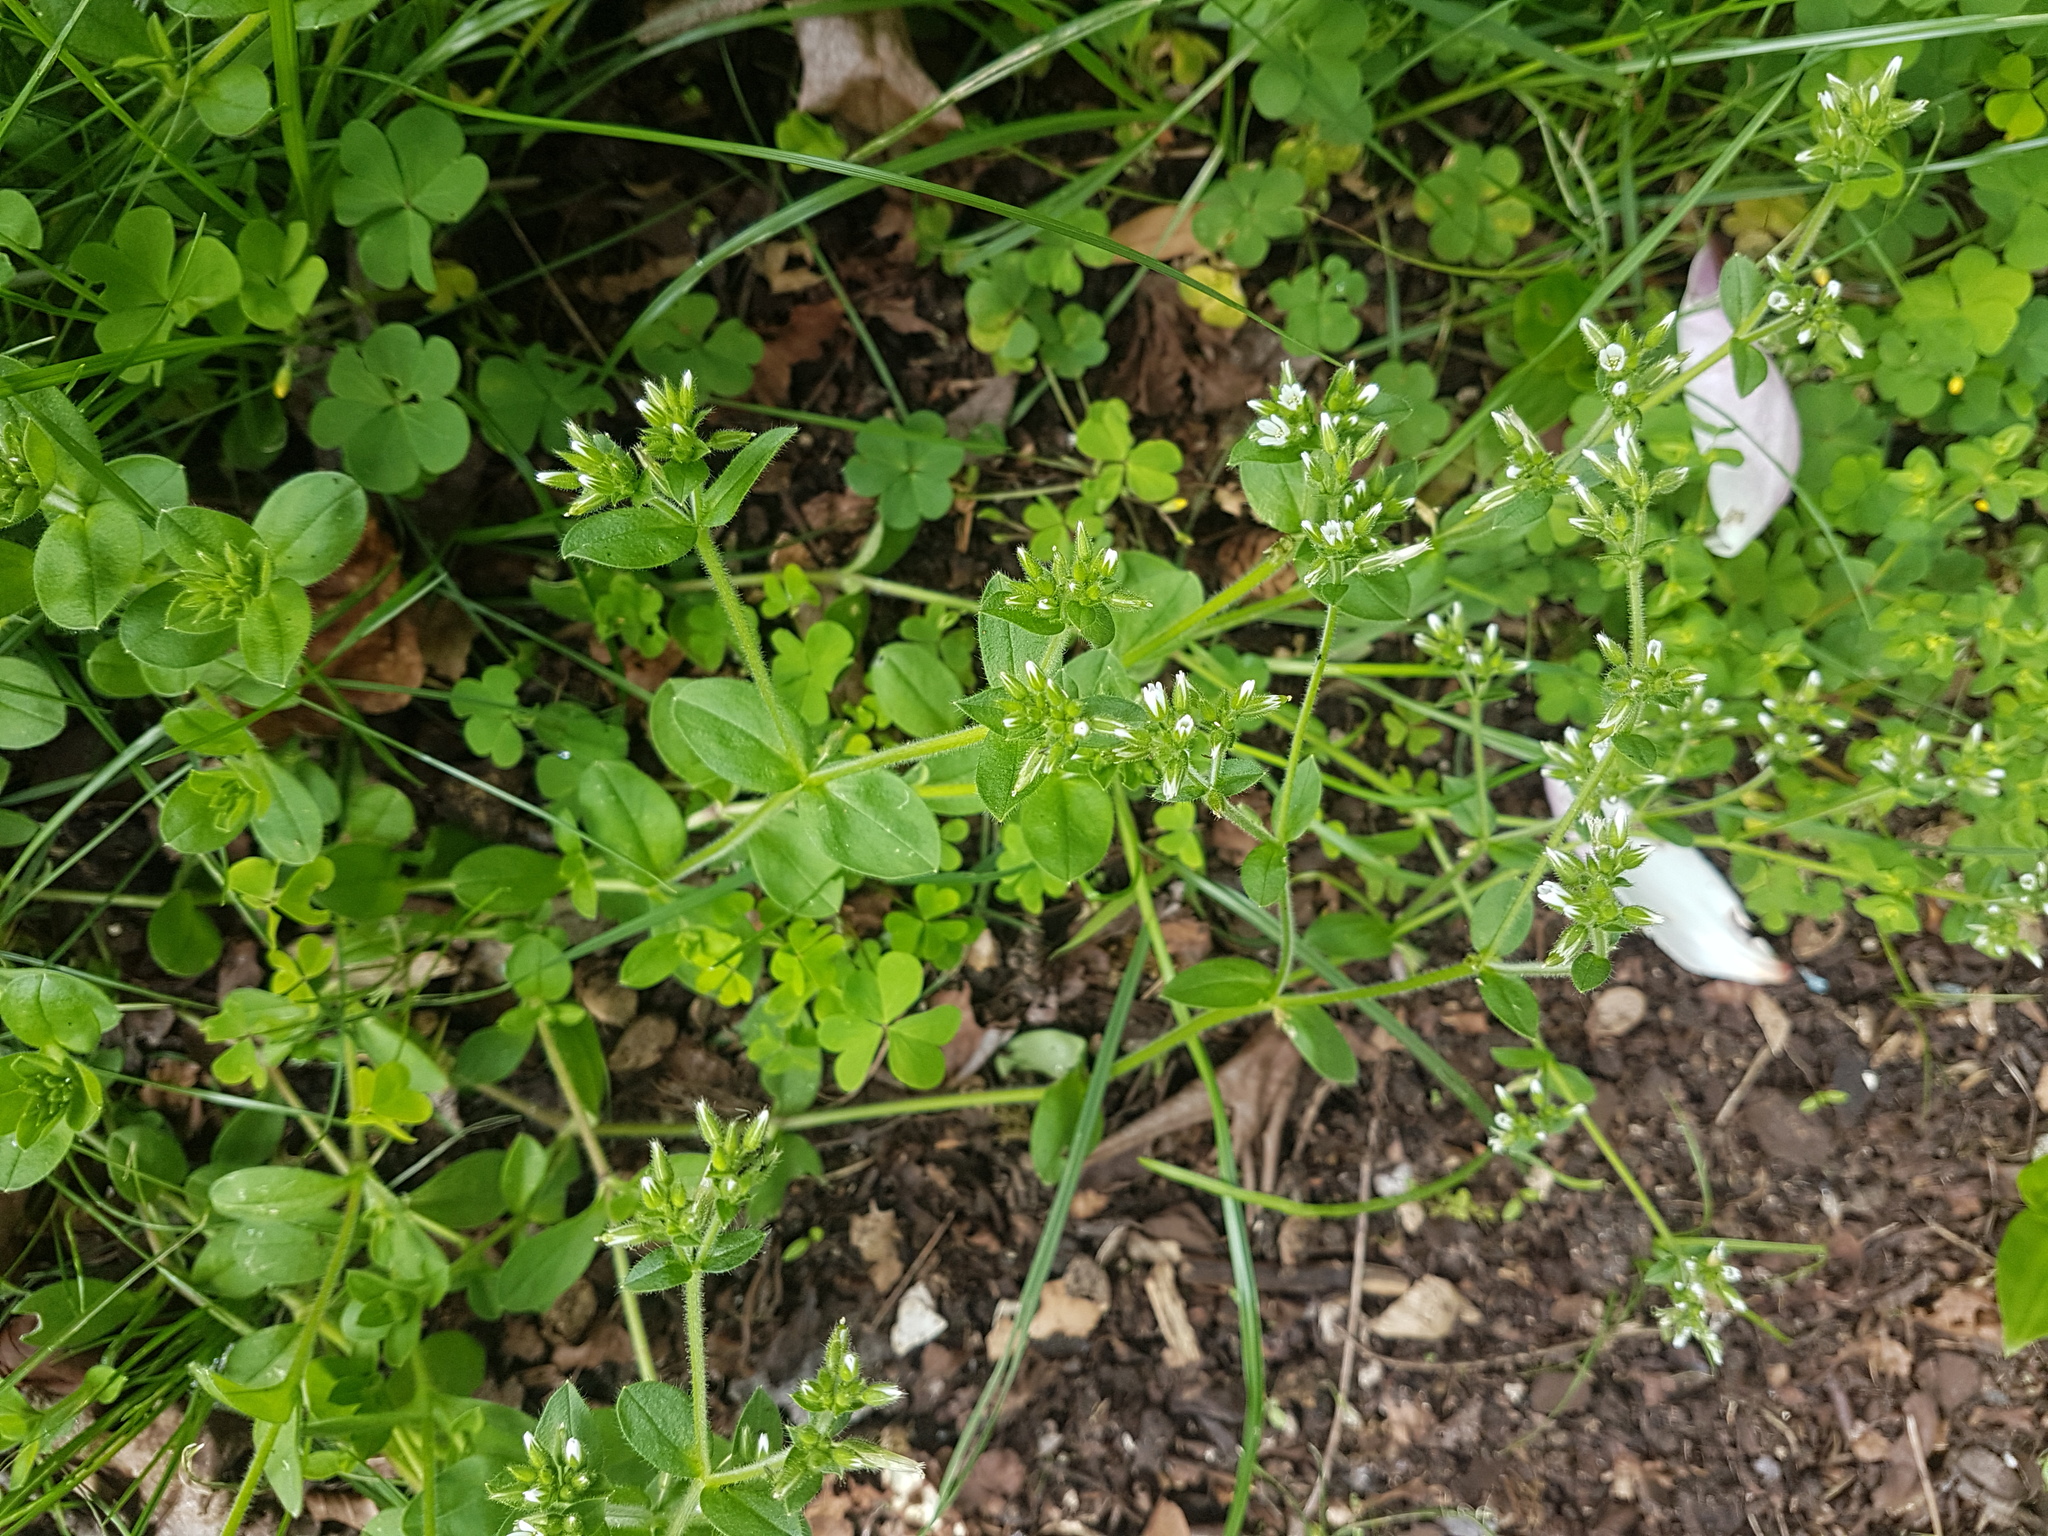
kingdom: Plantae
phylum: Tracheophyta
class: Magnoliopsida
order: Caryophyllales
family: Caryophyllaceae
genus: Stellaria
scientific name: Stellaria media
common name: Common chickweed
